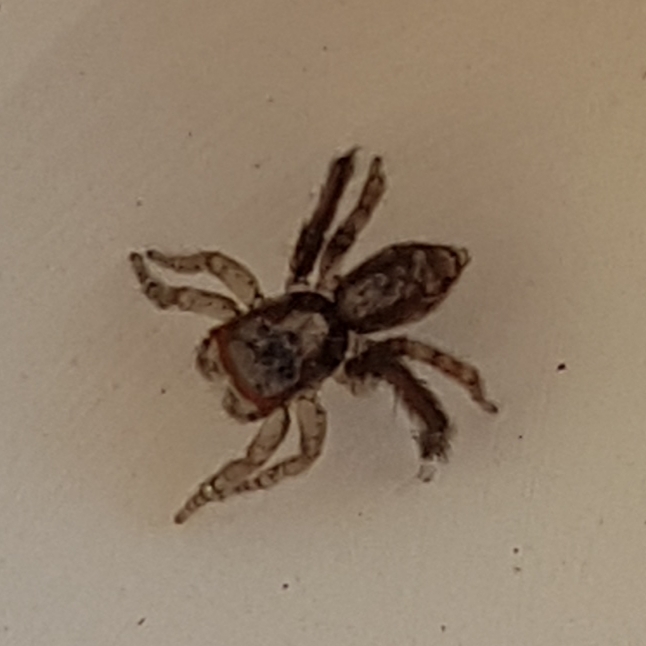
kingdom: Animalia
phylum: Arthropoda
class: Arachnida
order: Araneae
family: Salticidae
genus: Saitis
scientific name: Saitis barbipes
